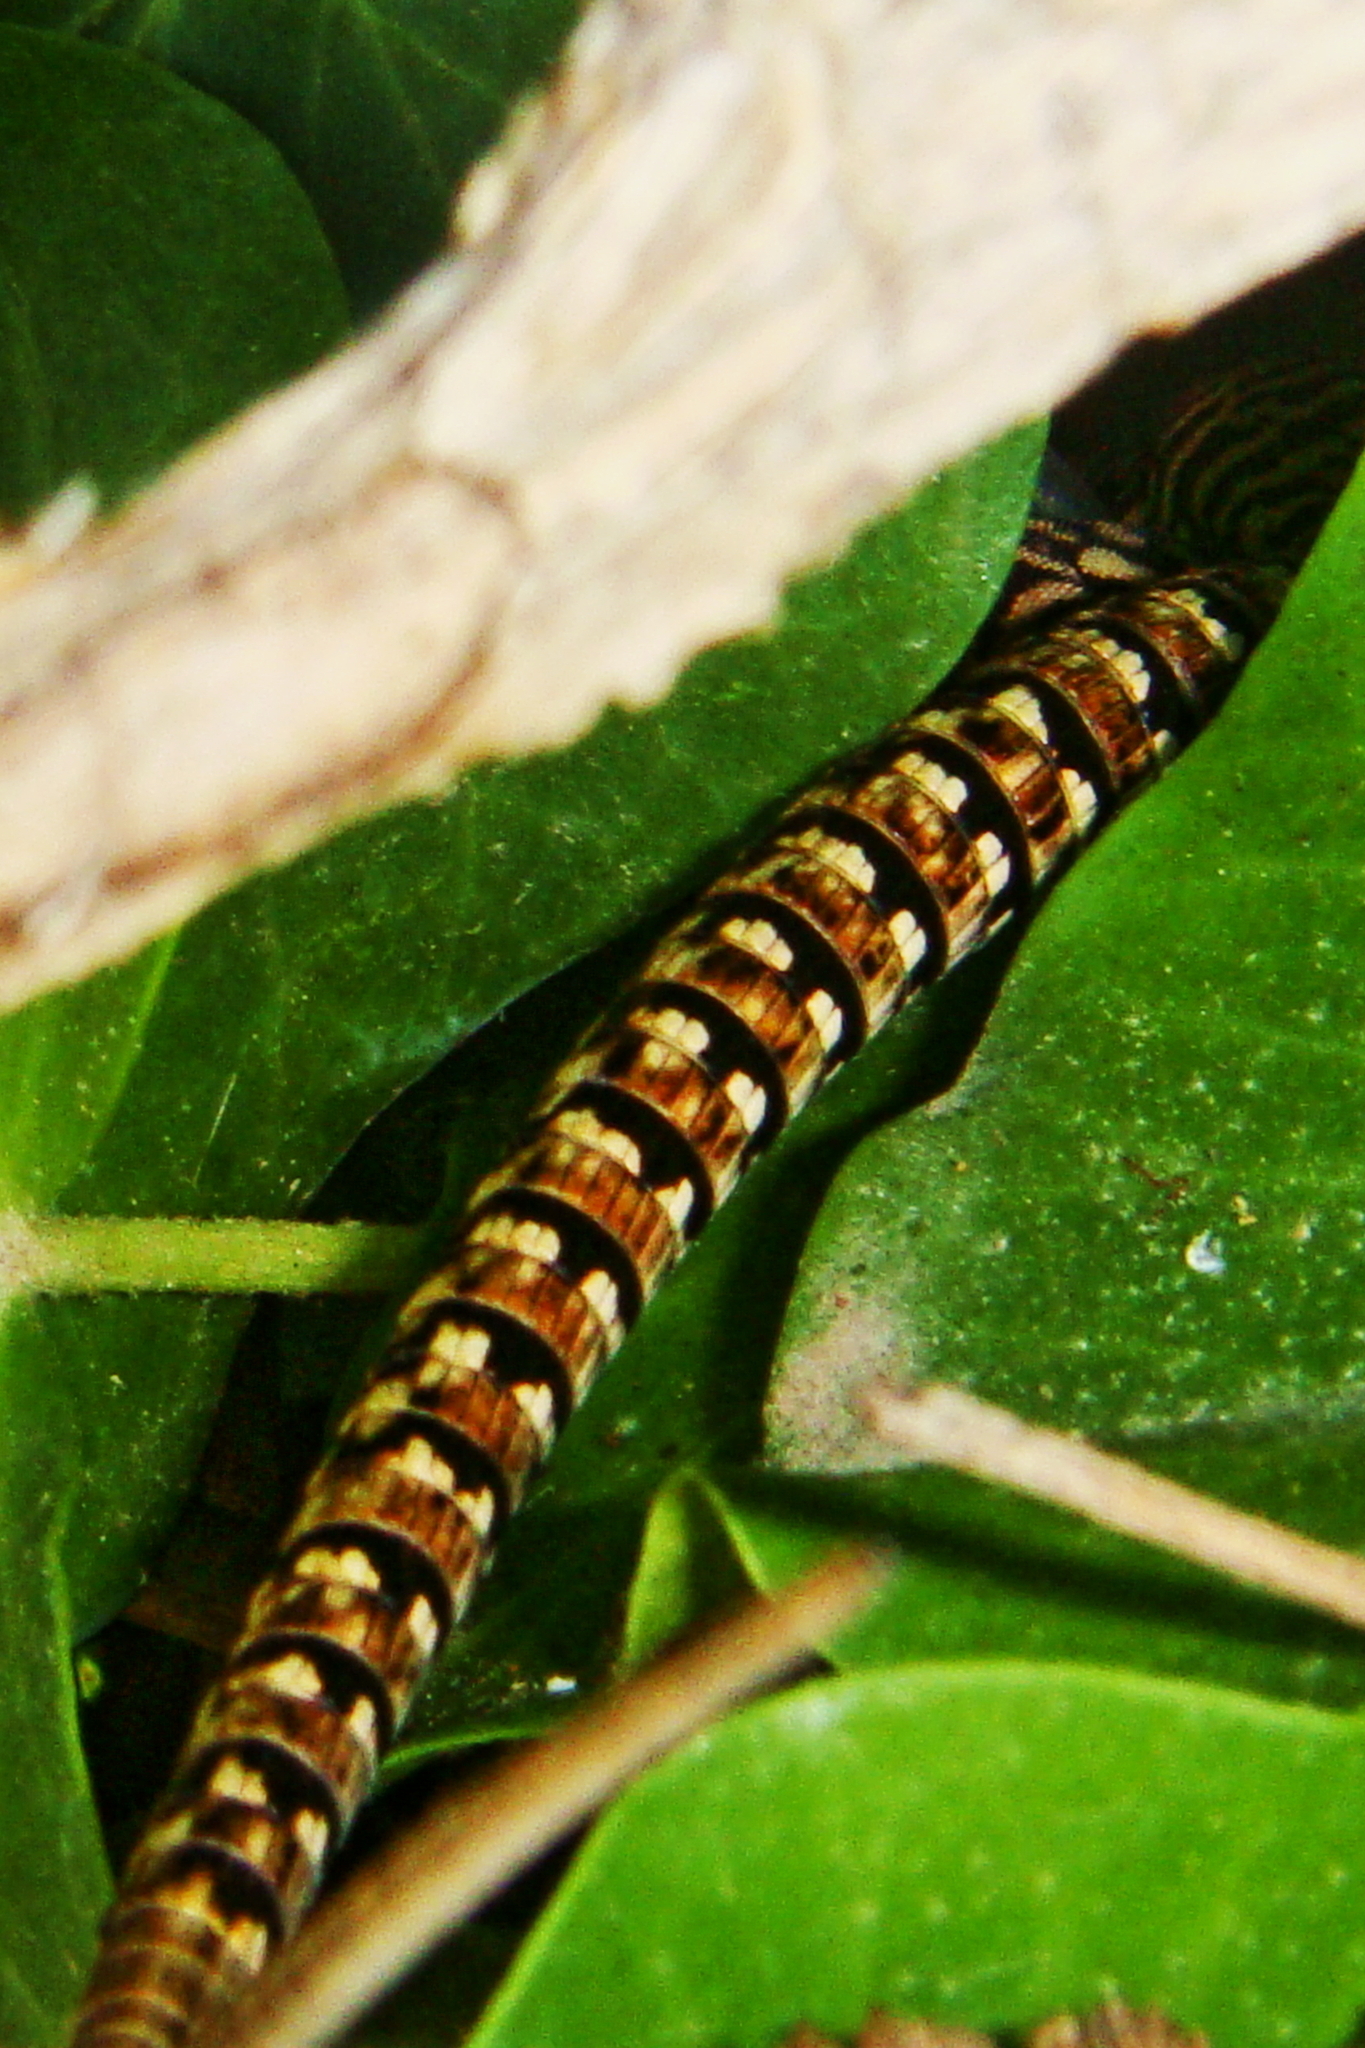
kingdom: Animalia
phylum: Chordata
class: Squamata
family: Lacertidae
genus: Podarcis
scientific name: Podarcis muralis
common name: Common wall lizard
